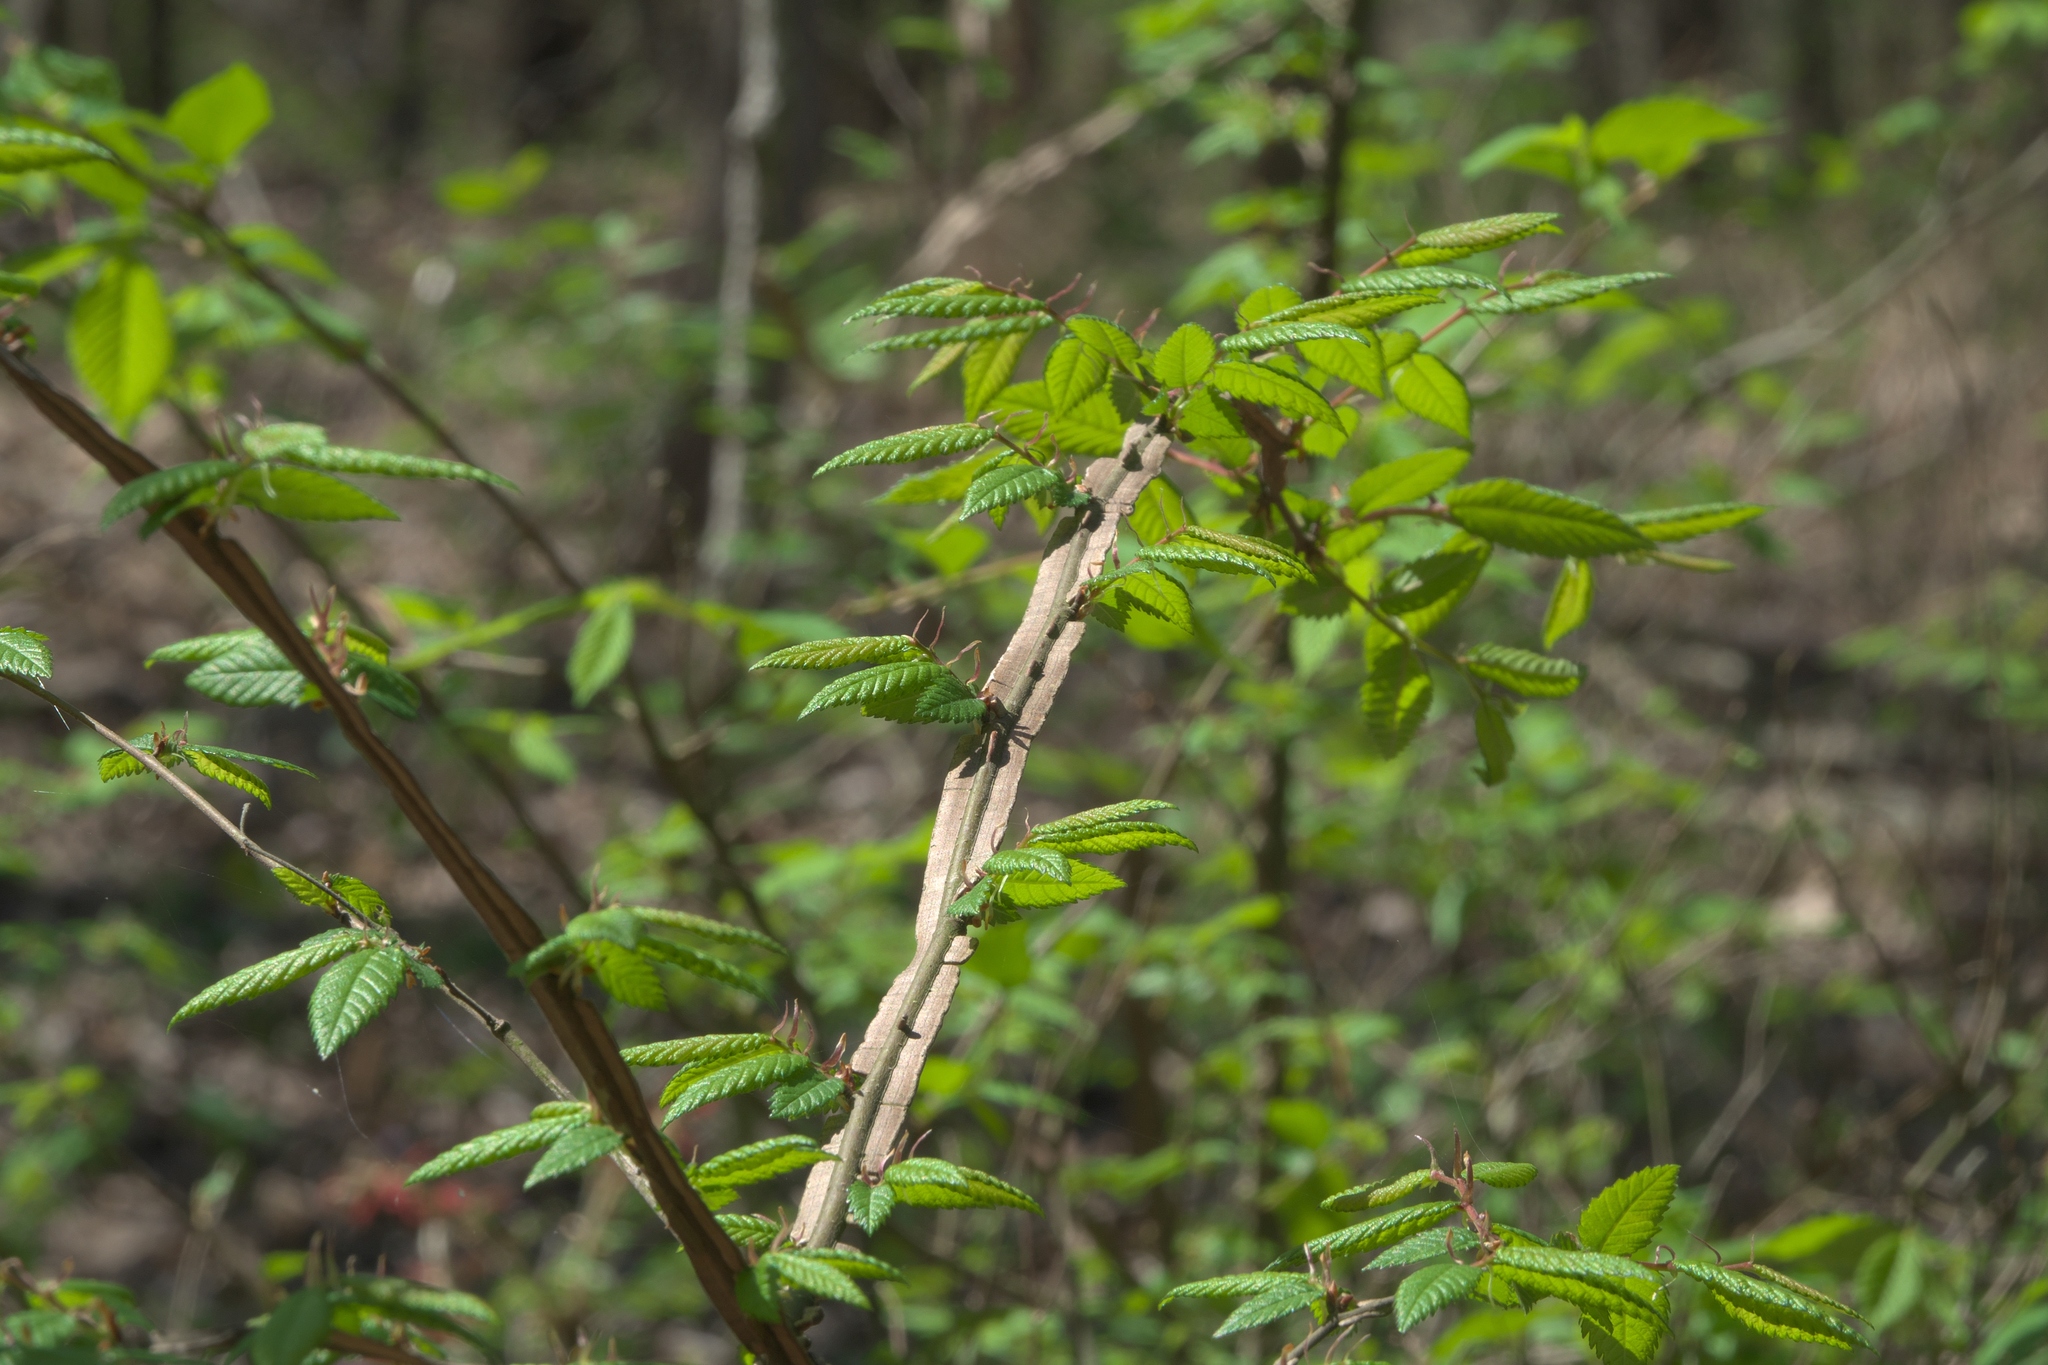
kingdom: Plantae
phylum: Tracheophyta
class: Magnoliopsida
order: Rosales
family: Ulmaceae
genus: Ulmus
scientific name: Ulmus alata
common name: Winged elm
